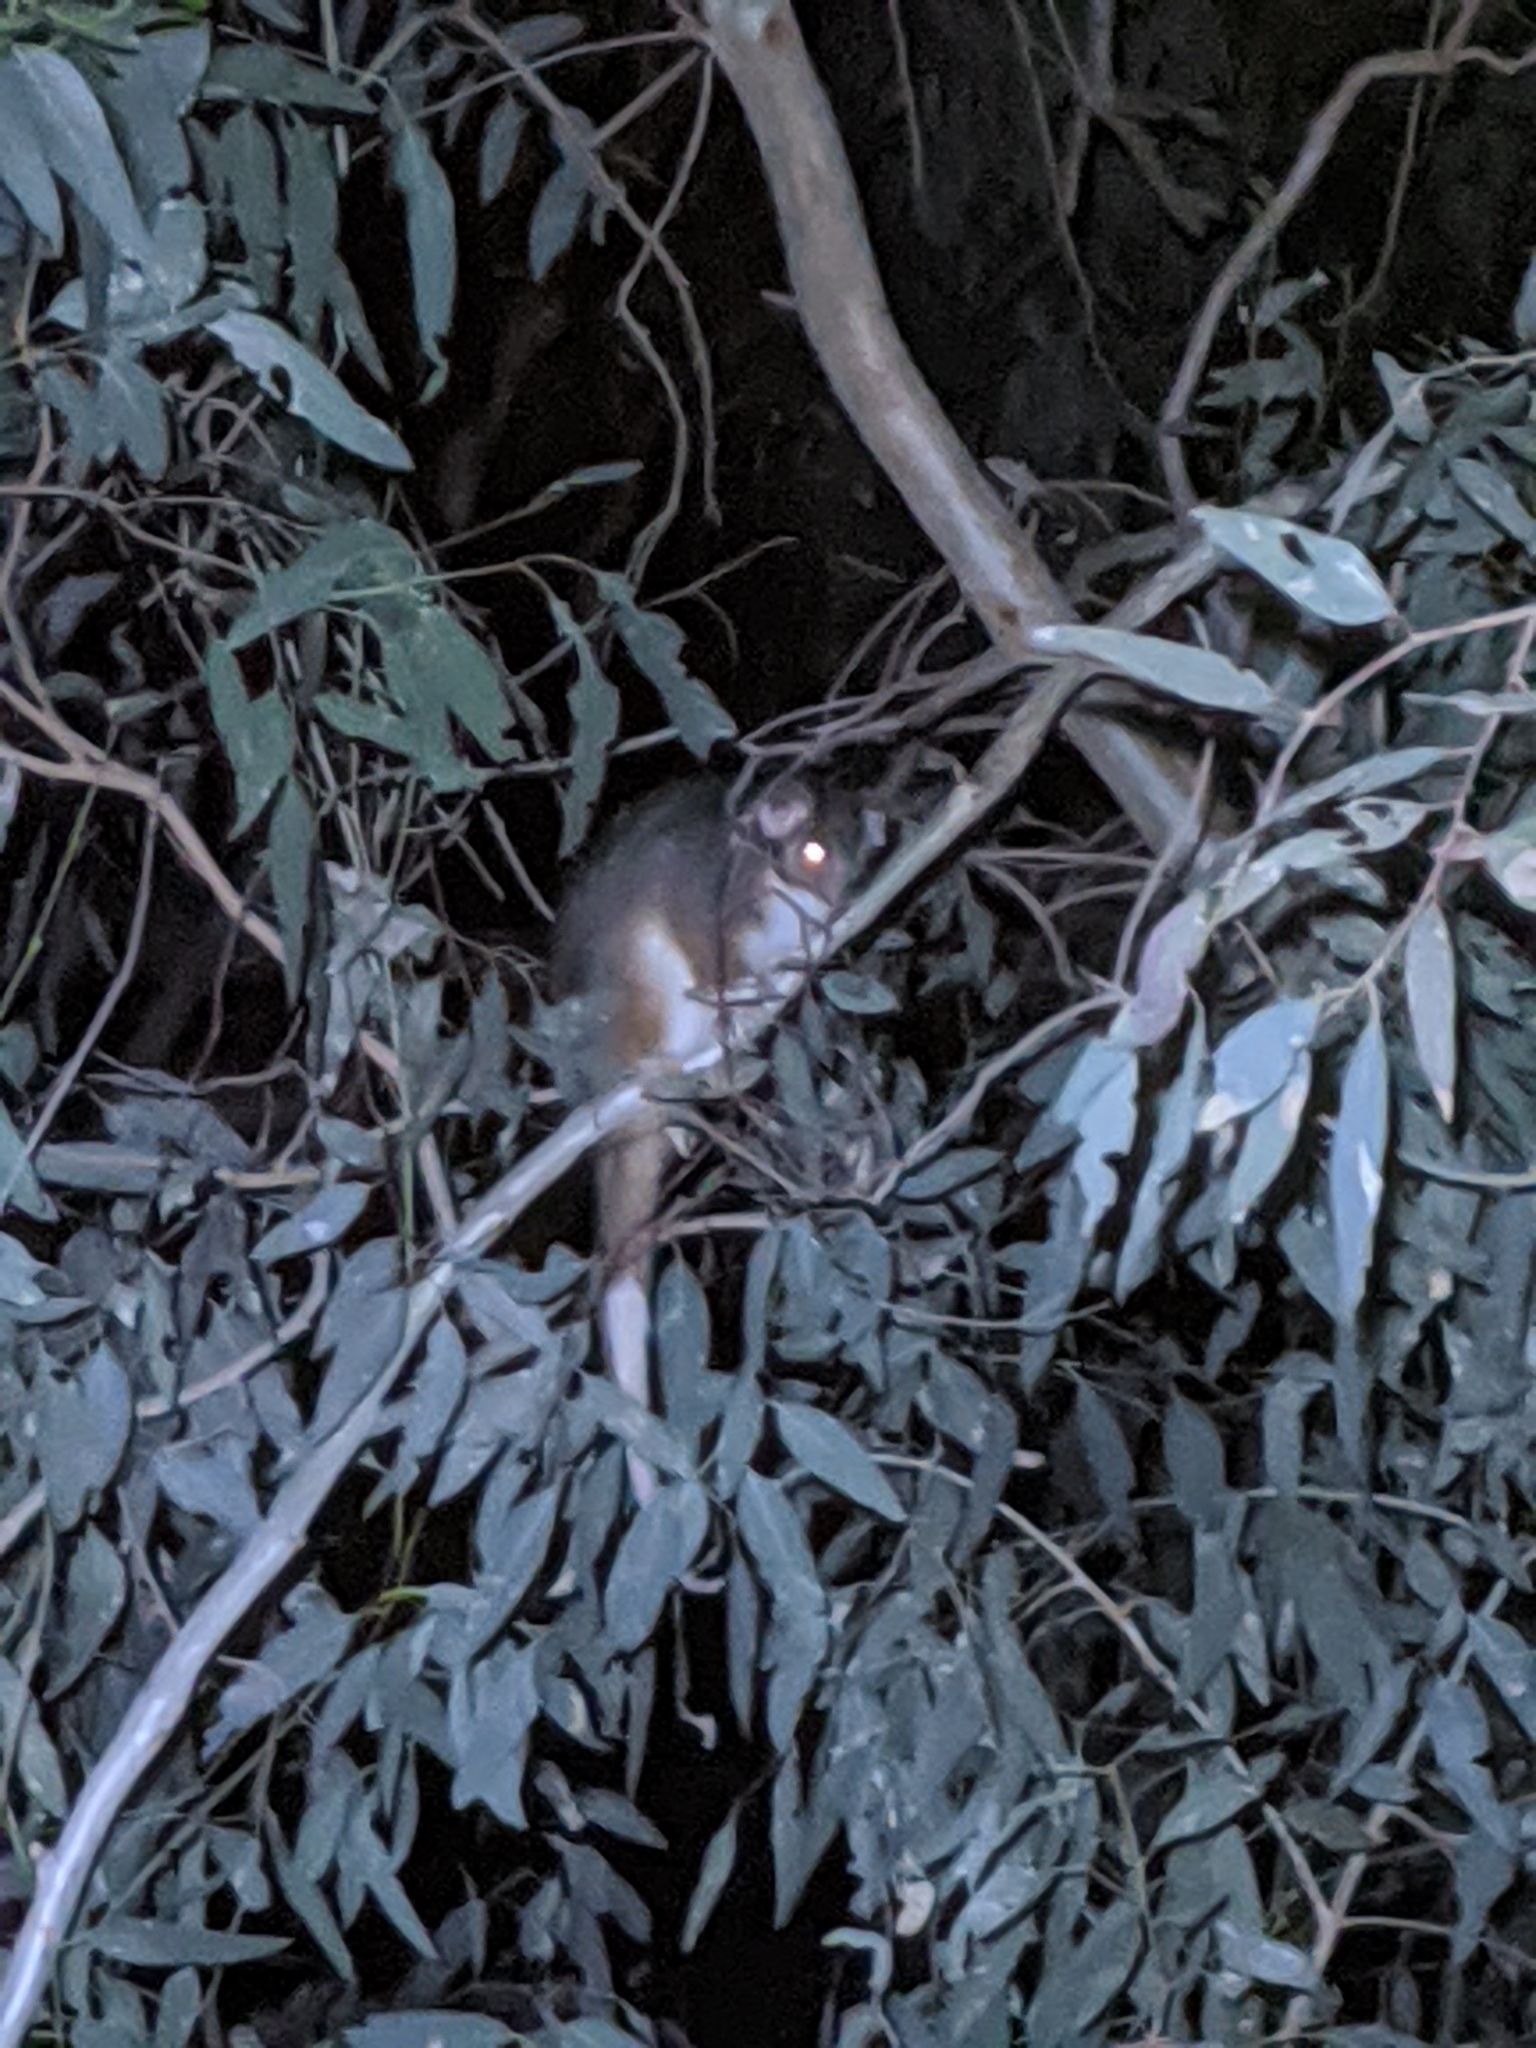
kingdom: Animalia
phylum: Chordata
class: Mammalia
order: Diprotodontia
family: Pseudocheiridae
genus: Pseudocheirus
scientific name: Pseudocheirus peregrinus
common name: Common ringtail possum
